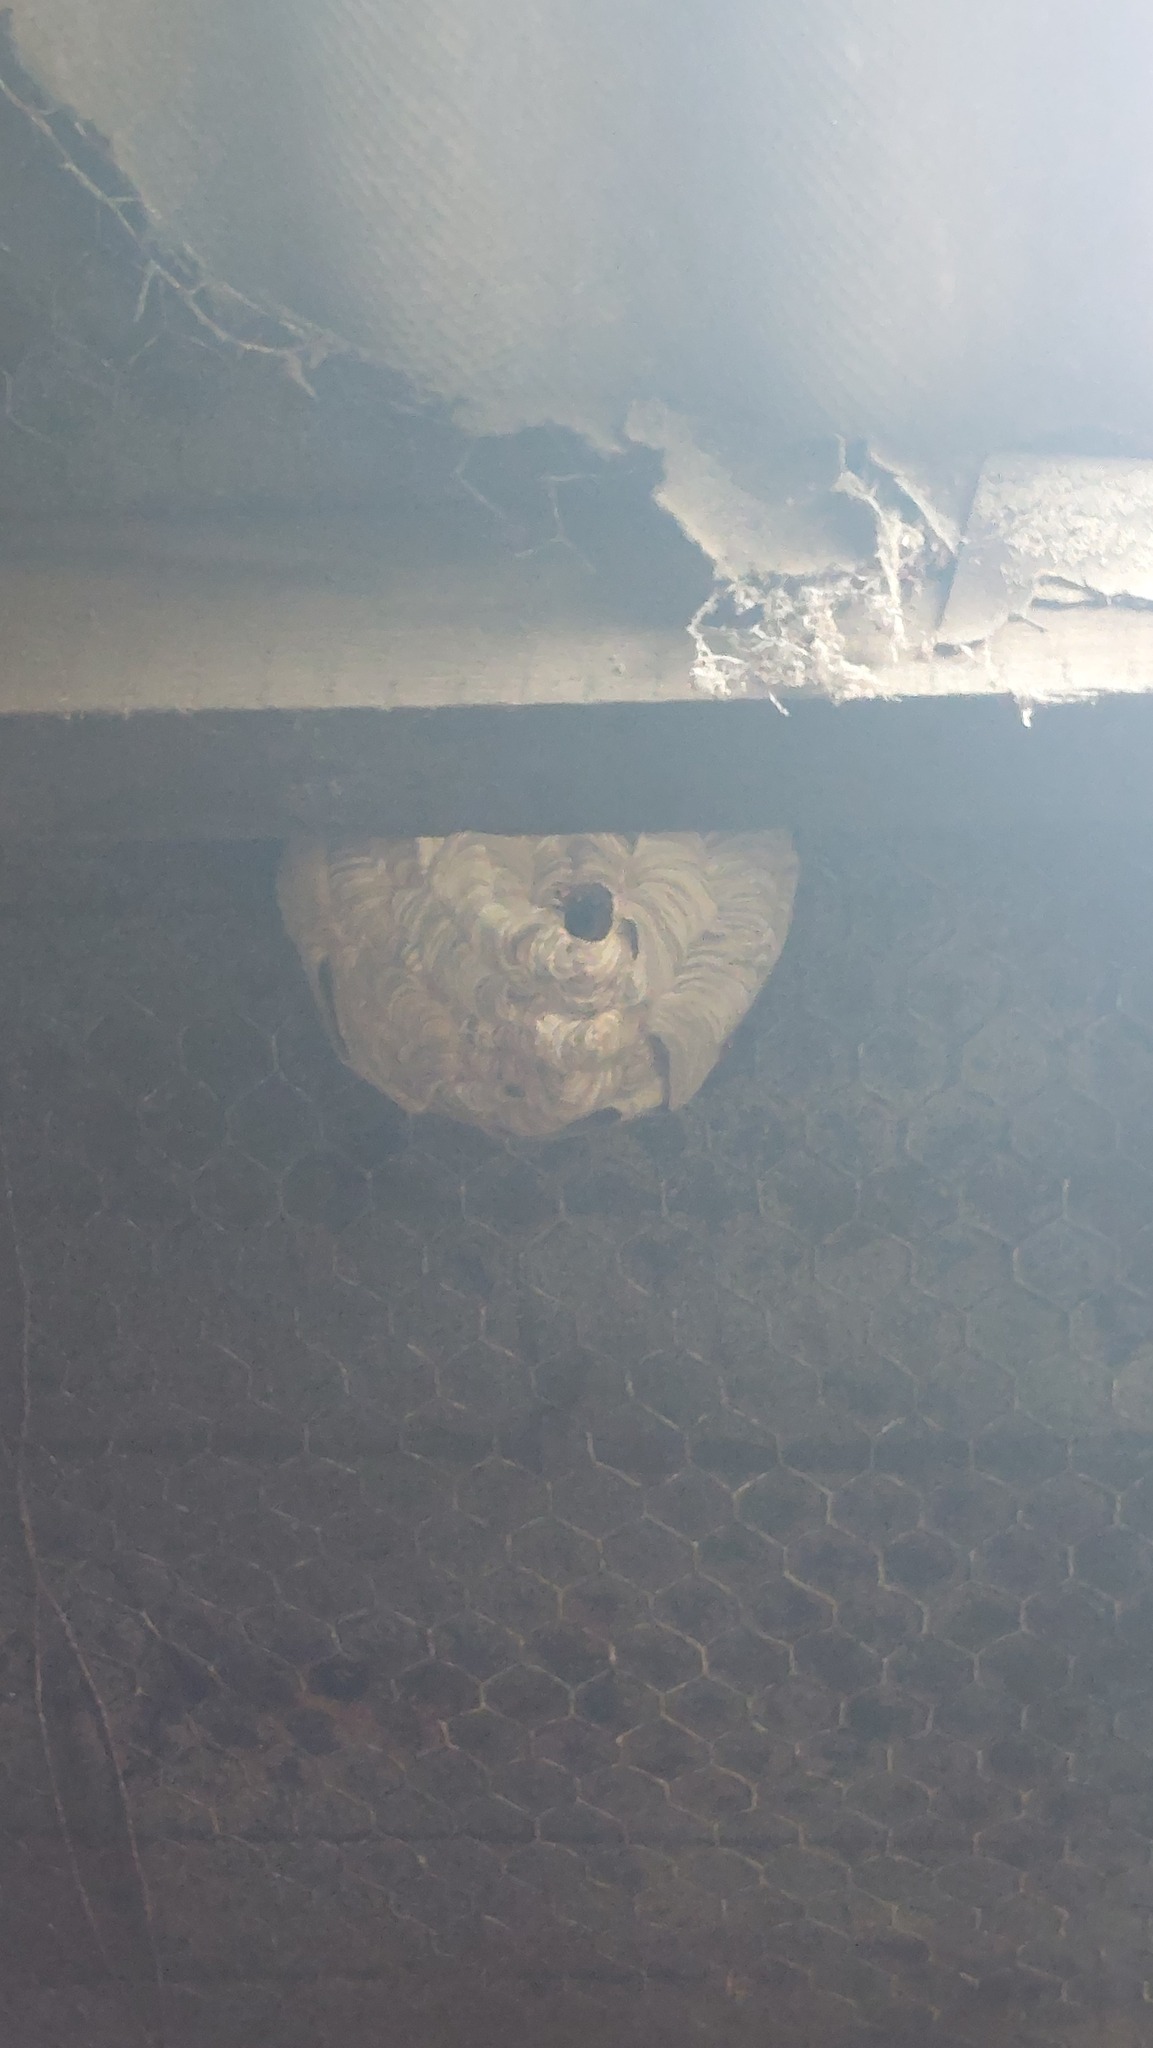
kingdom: Animalia
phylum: Arthropoda
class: Insecta
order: Hymenoptera
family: Vespidae
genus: Vespa
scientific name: Vespa velutina
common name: Asian hornet
